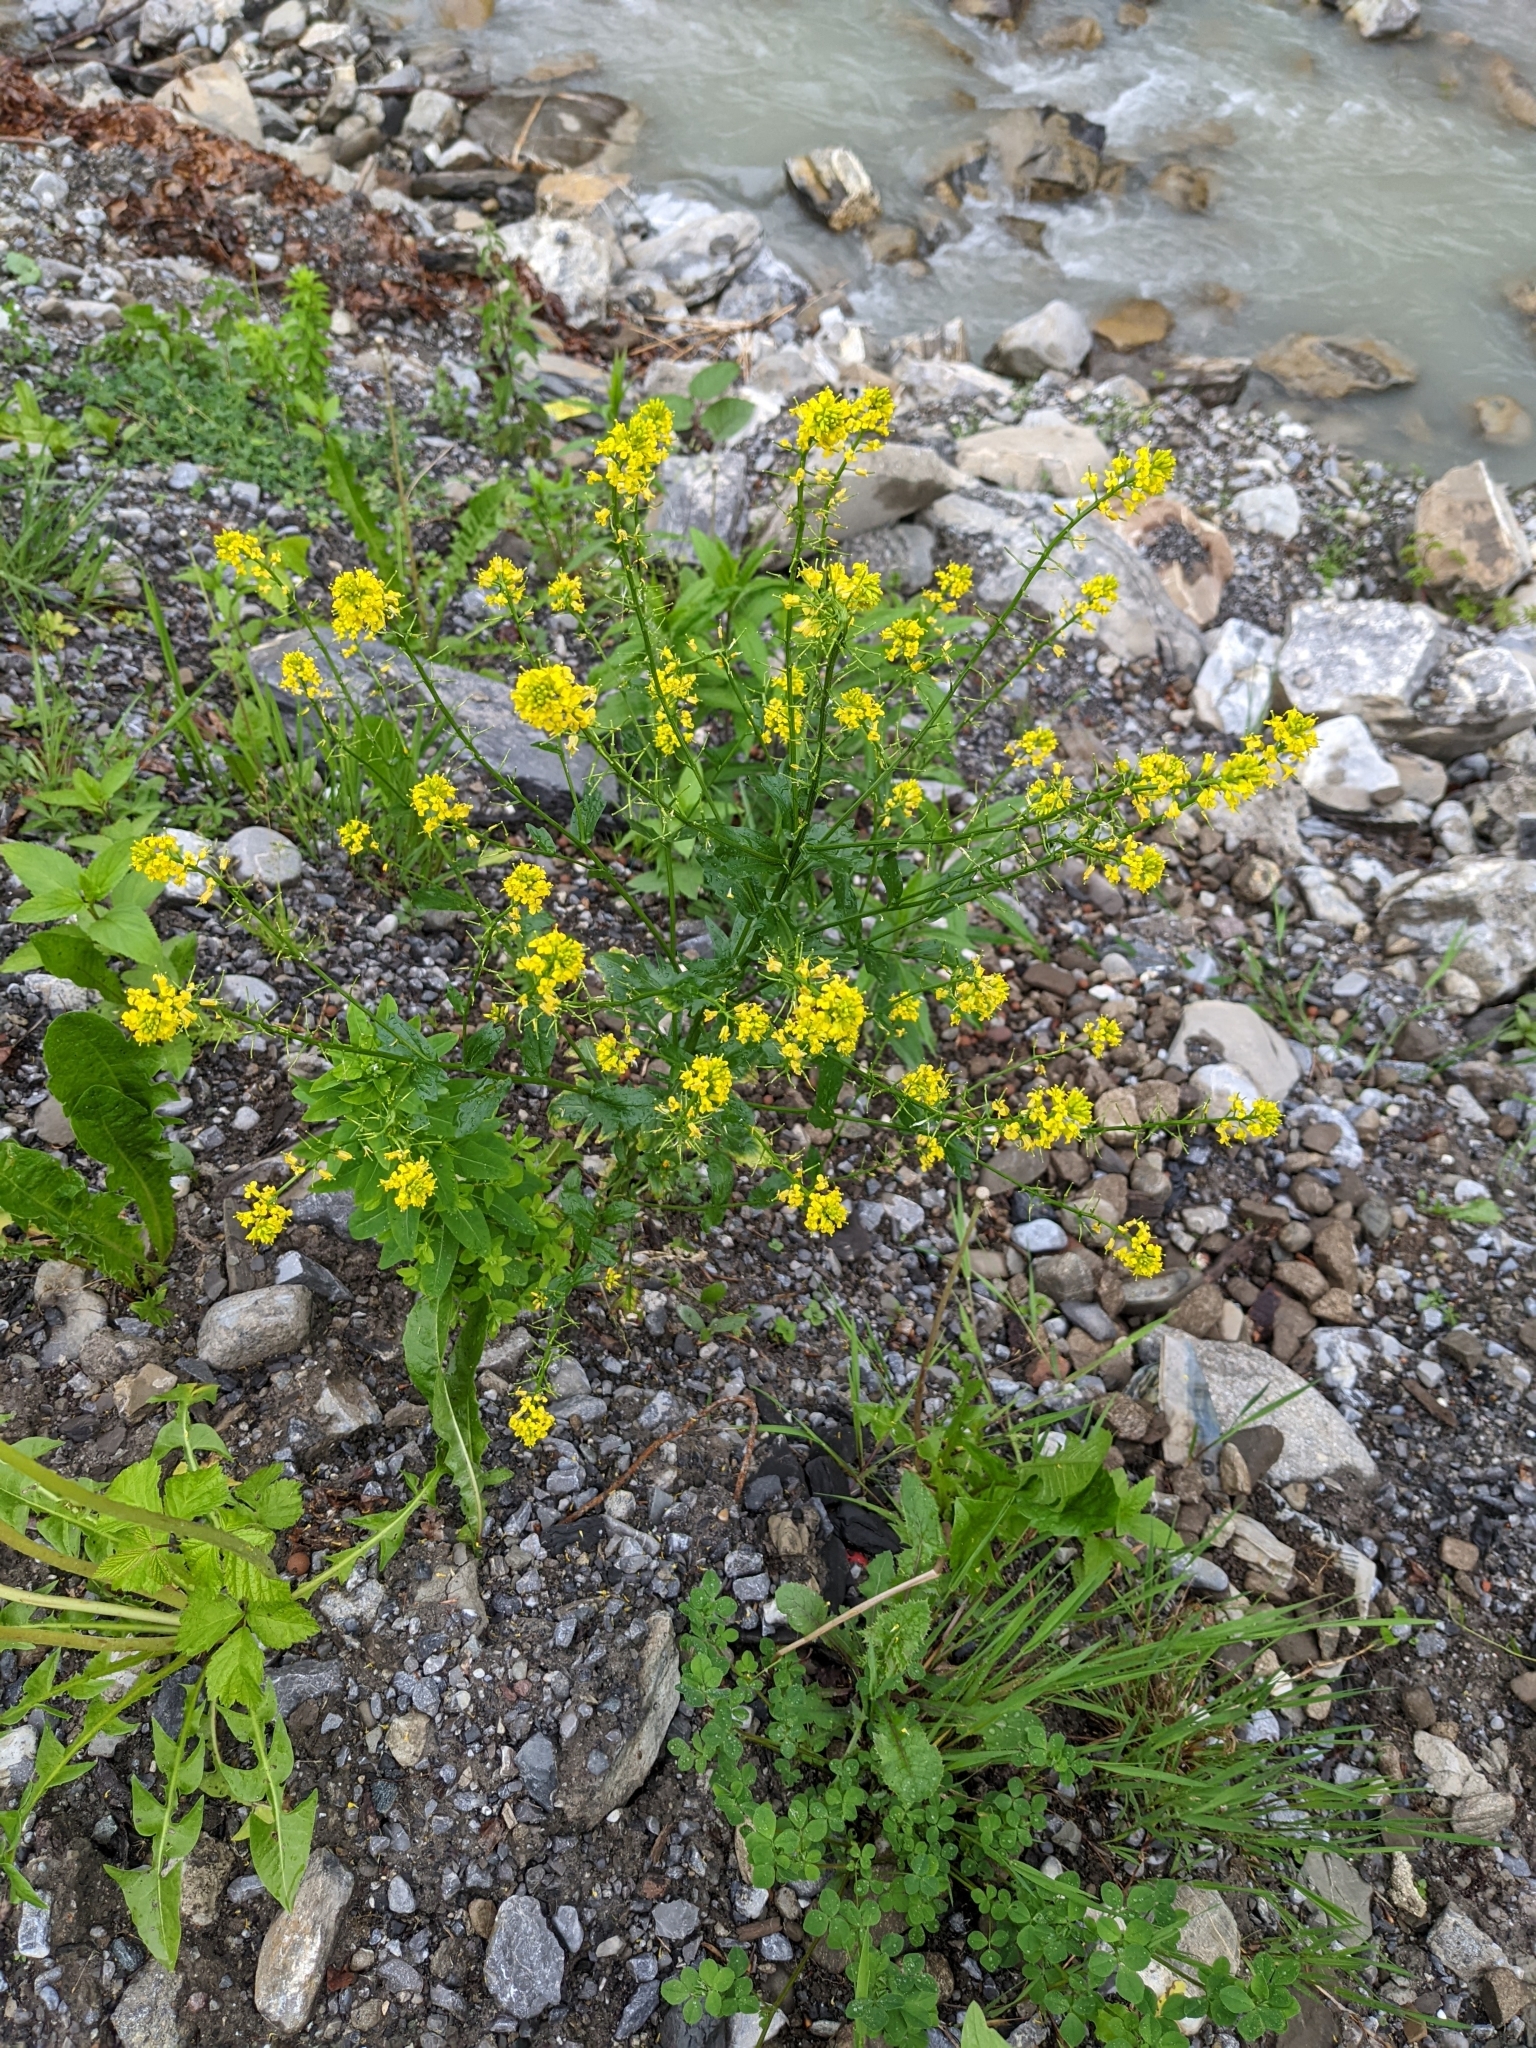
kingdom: Plantae
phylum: Tracheophyta
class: Magnoliopsida
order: Brassicales
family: Brassicaceae
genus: Barbarea
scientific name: Barbarea vulgaris
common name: Cressy-greens
